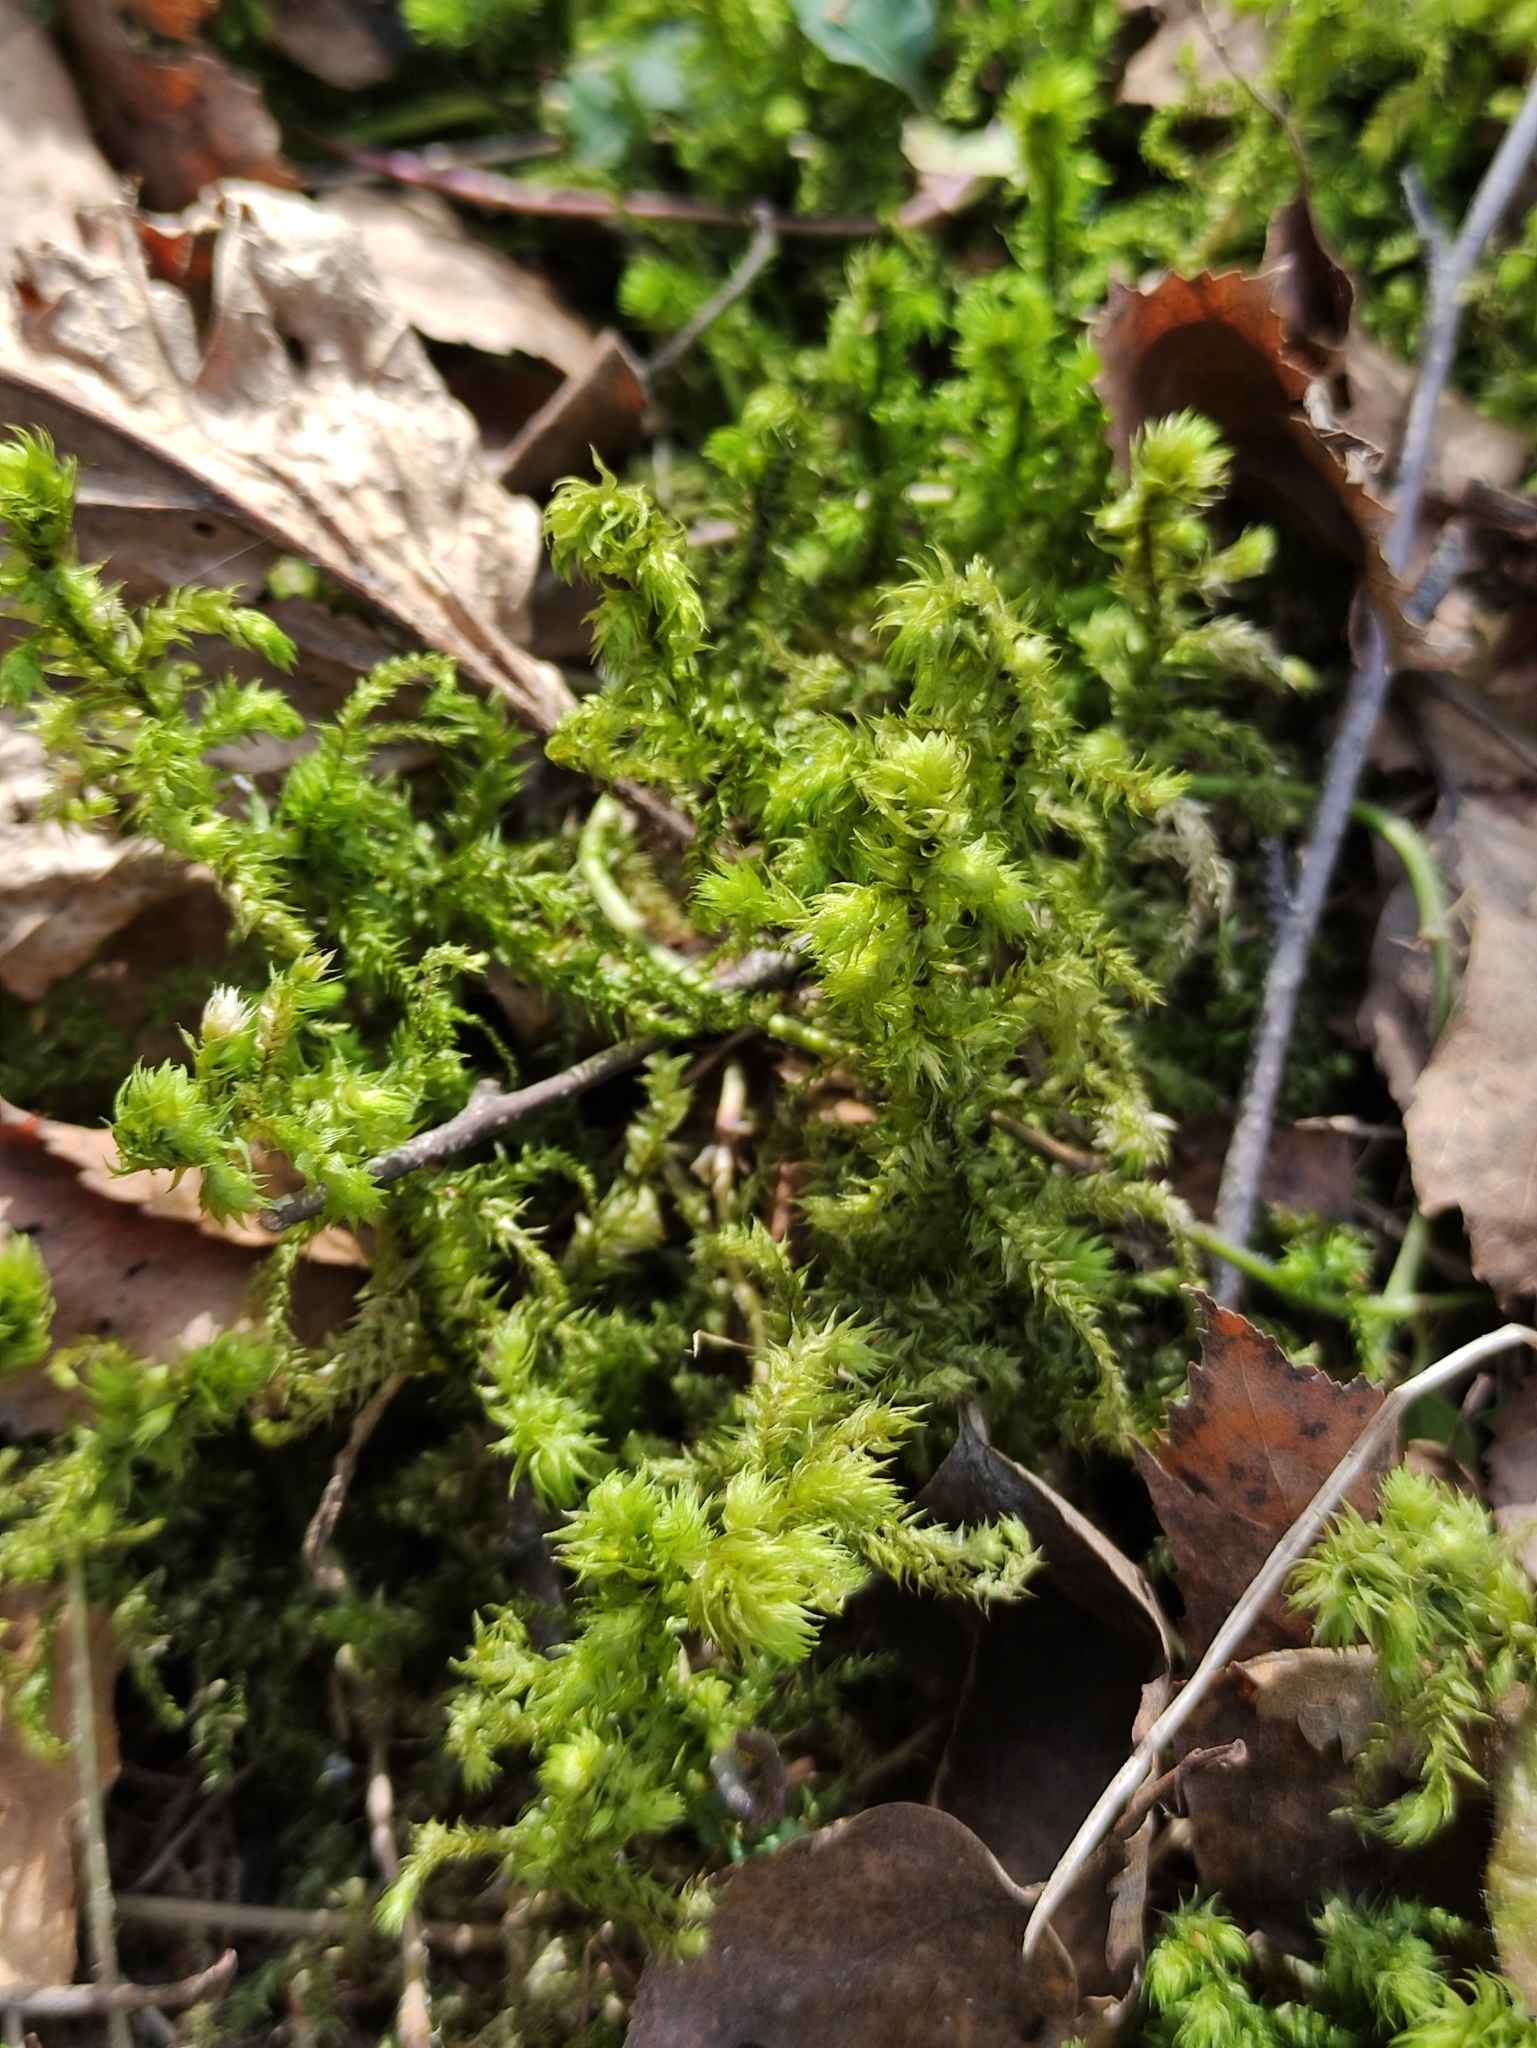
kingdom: Plantae
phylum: Bryophyta
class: Bryopsida
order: Hypnales
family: Hylocomiaceae
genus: Hylocomiadelphus
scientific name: Hylocomiadelphus triquetrus
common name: Rough goose neck moss
